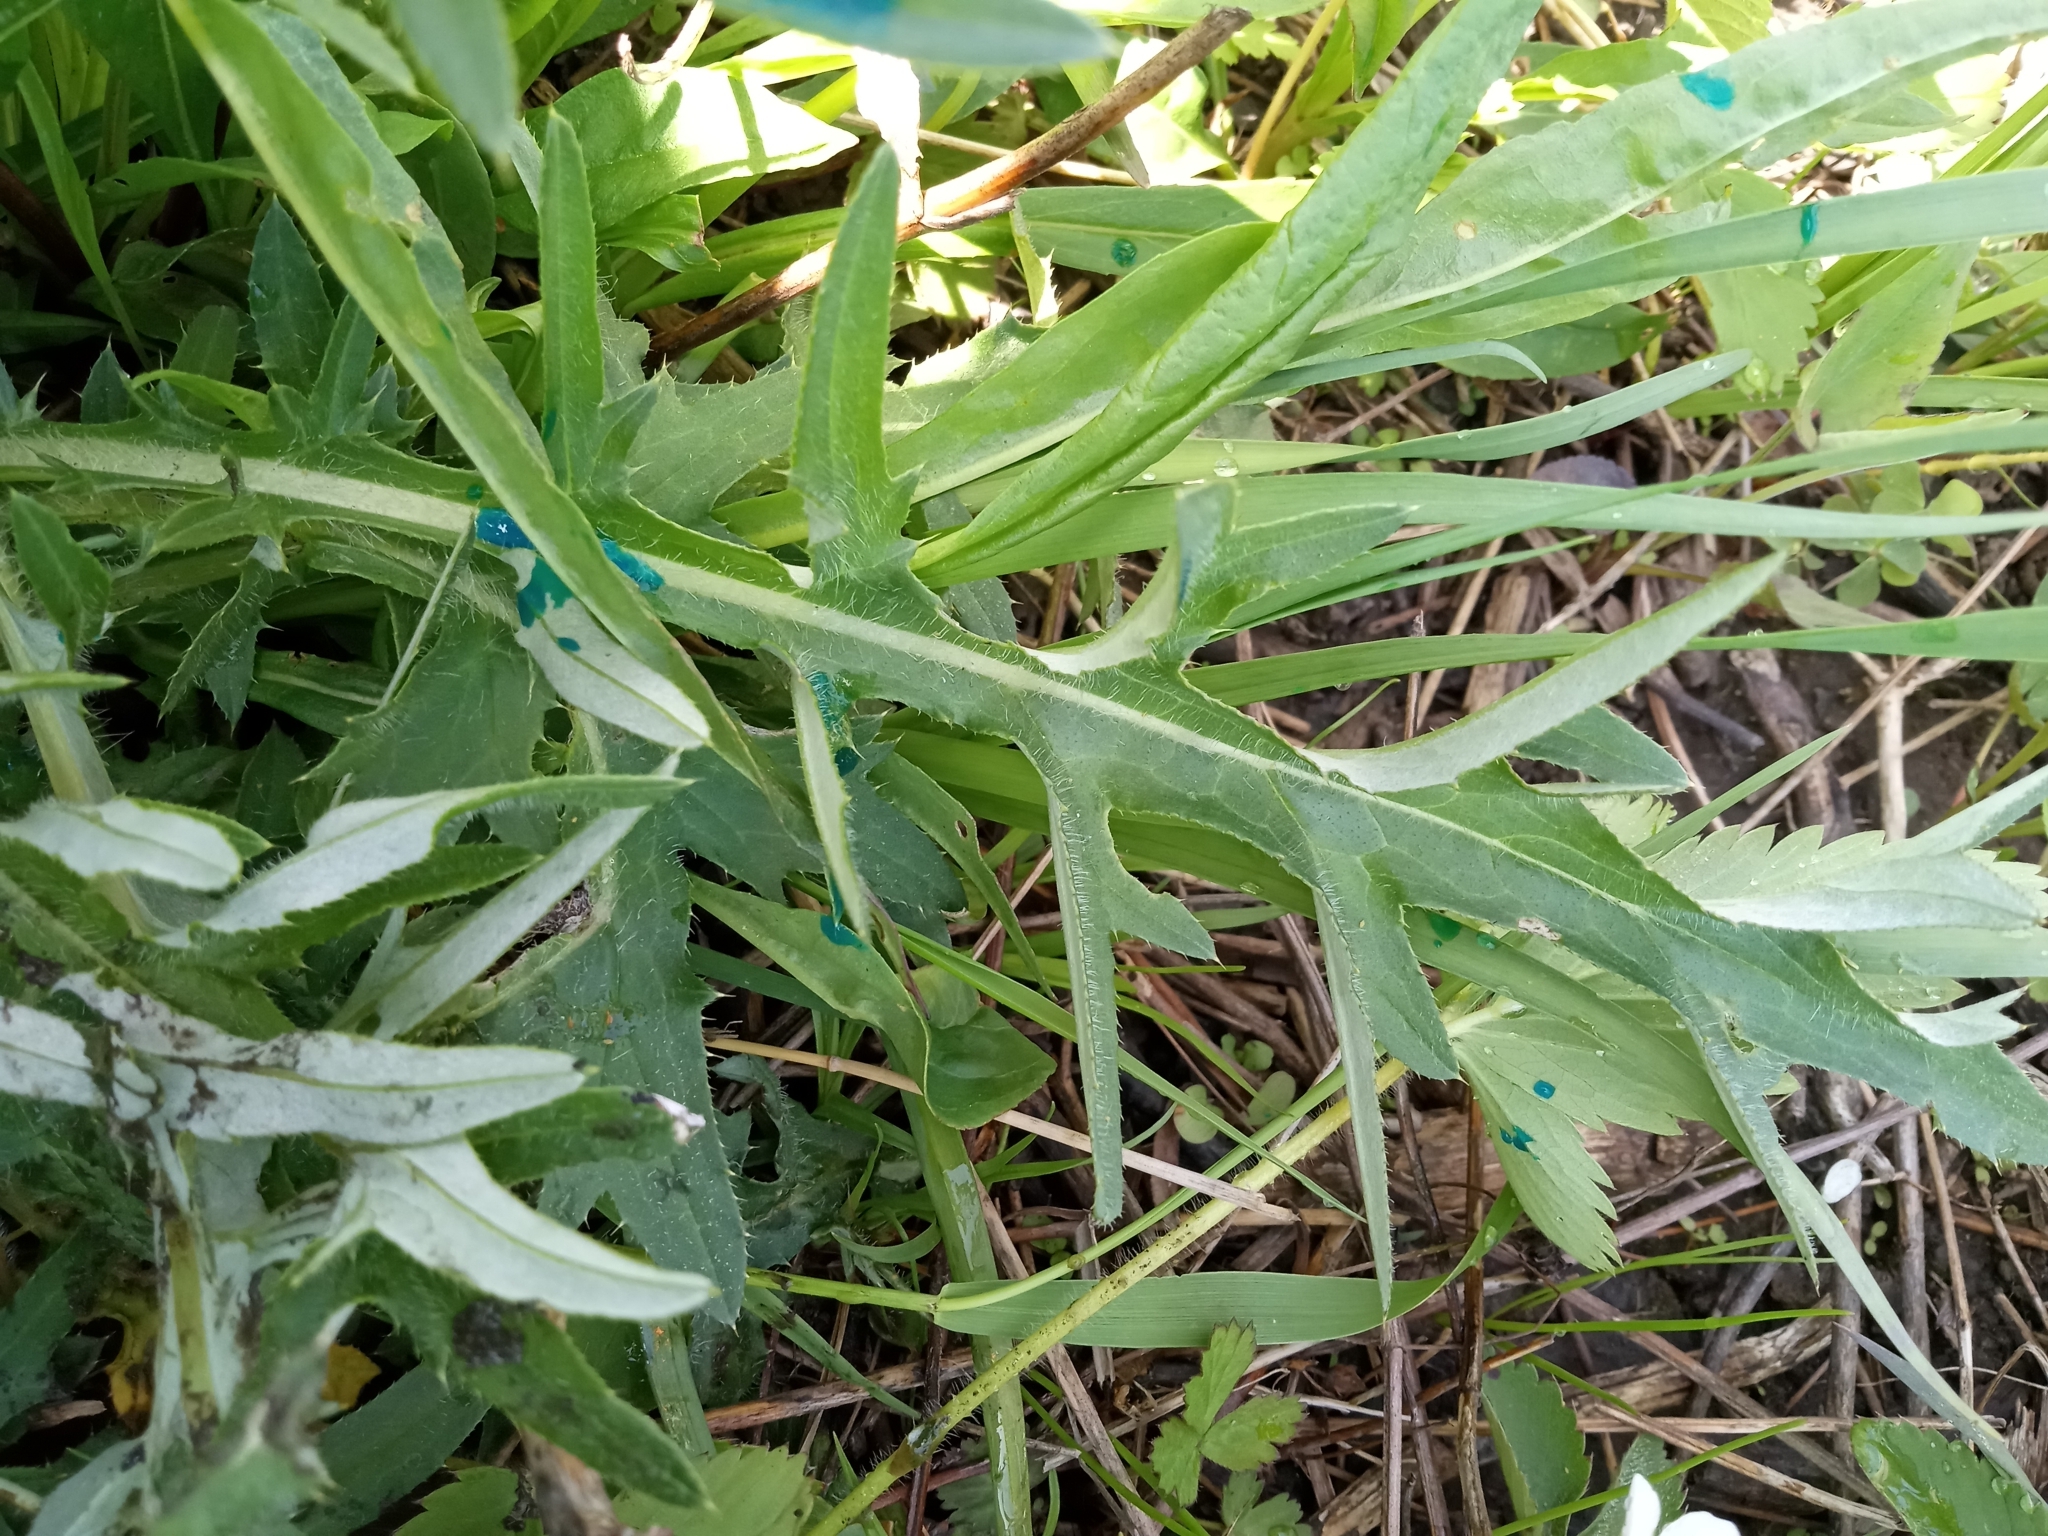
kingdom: Plantae
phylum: Tracheophyta
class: Magnoliopsida
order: Asterales
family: Asteraceae
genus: Cirsium
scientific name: Cirsium discolor
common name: Field thistle
